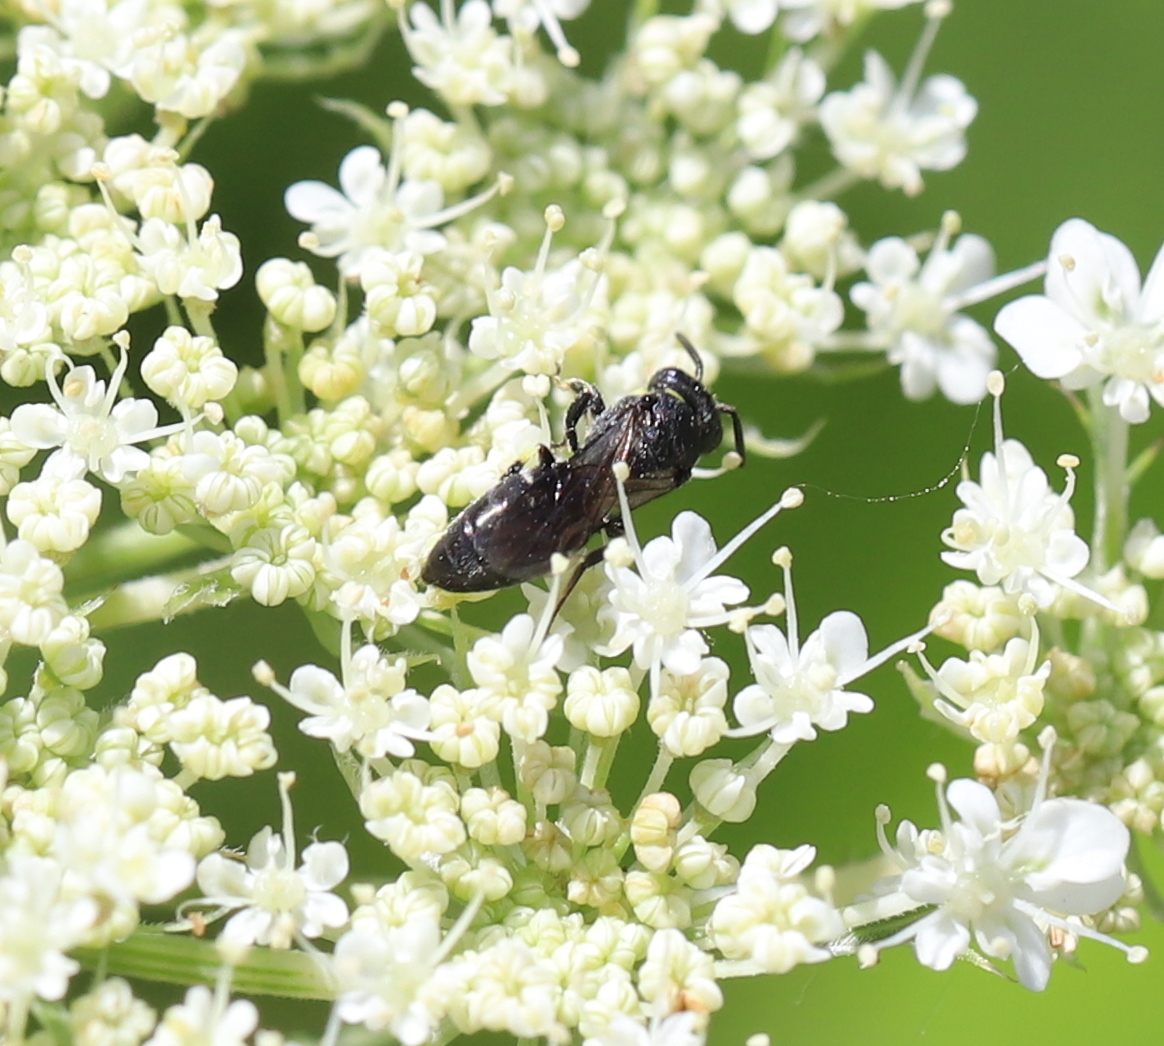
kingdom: Animalia
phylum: Arthropoda
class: Insecta
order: Hymenoptera
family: Colletidae
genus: Prosopis
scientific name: Prosopis
